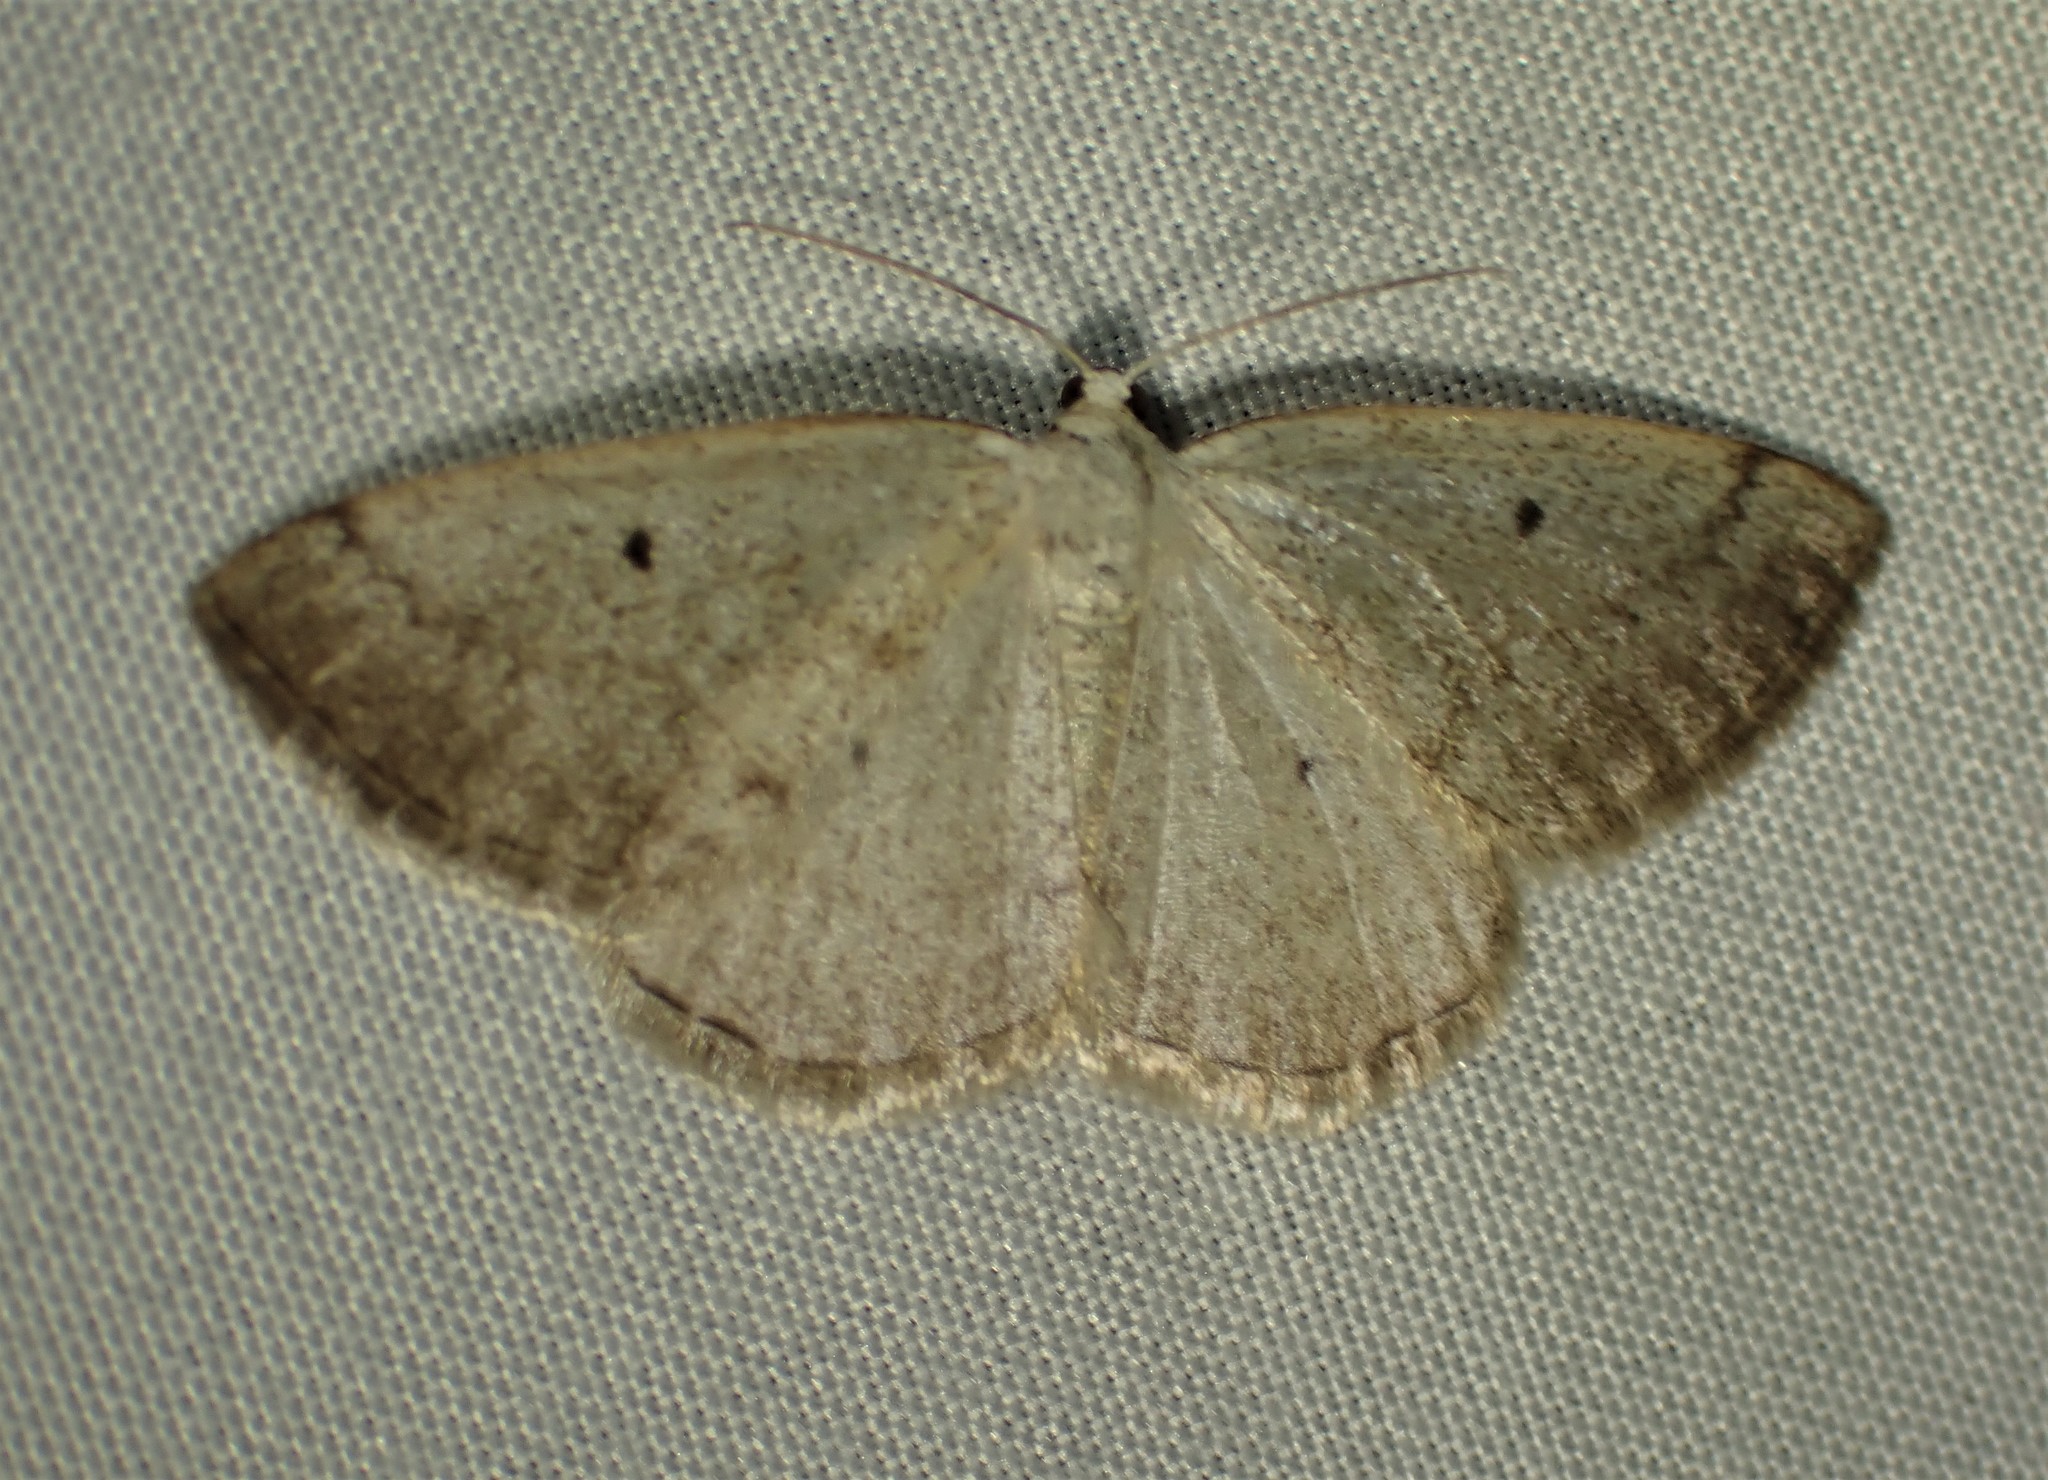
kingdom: Animalia
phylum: Arthropoda
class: Insecta
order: Lepidoptera
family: Geometridae
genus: Lomographa
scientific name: Lomographa glomeraria
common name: Gray spring moth
